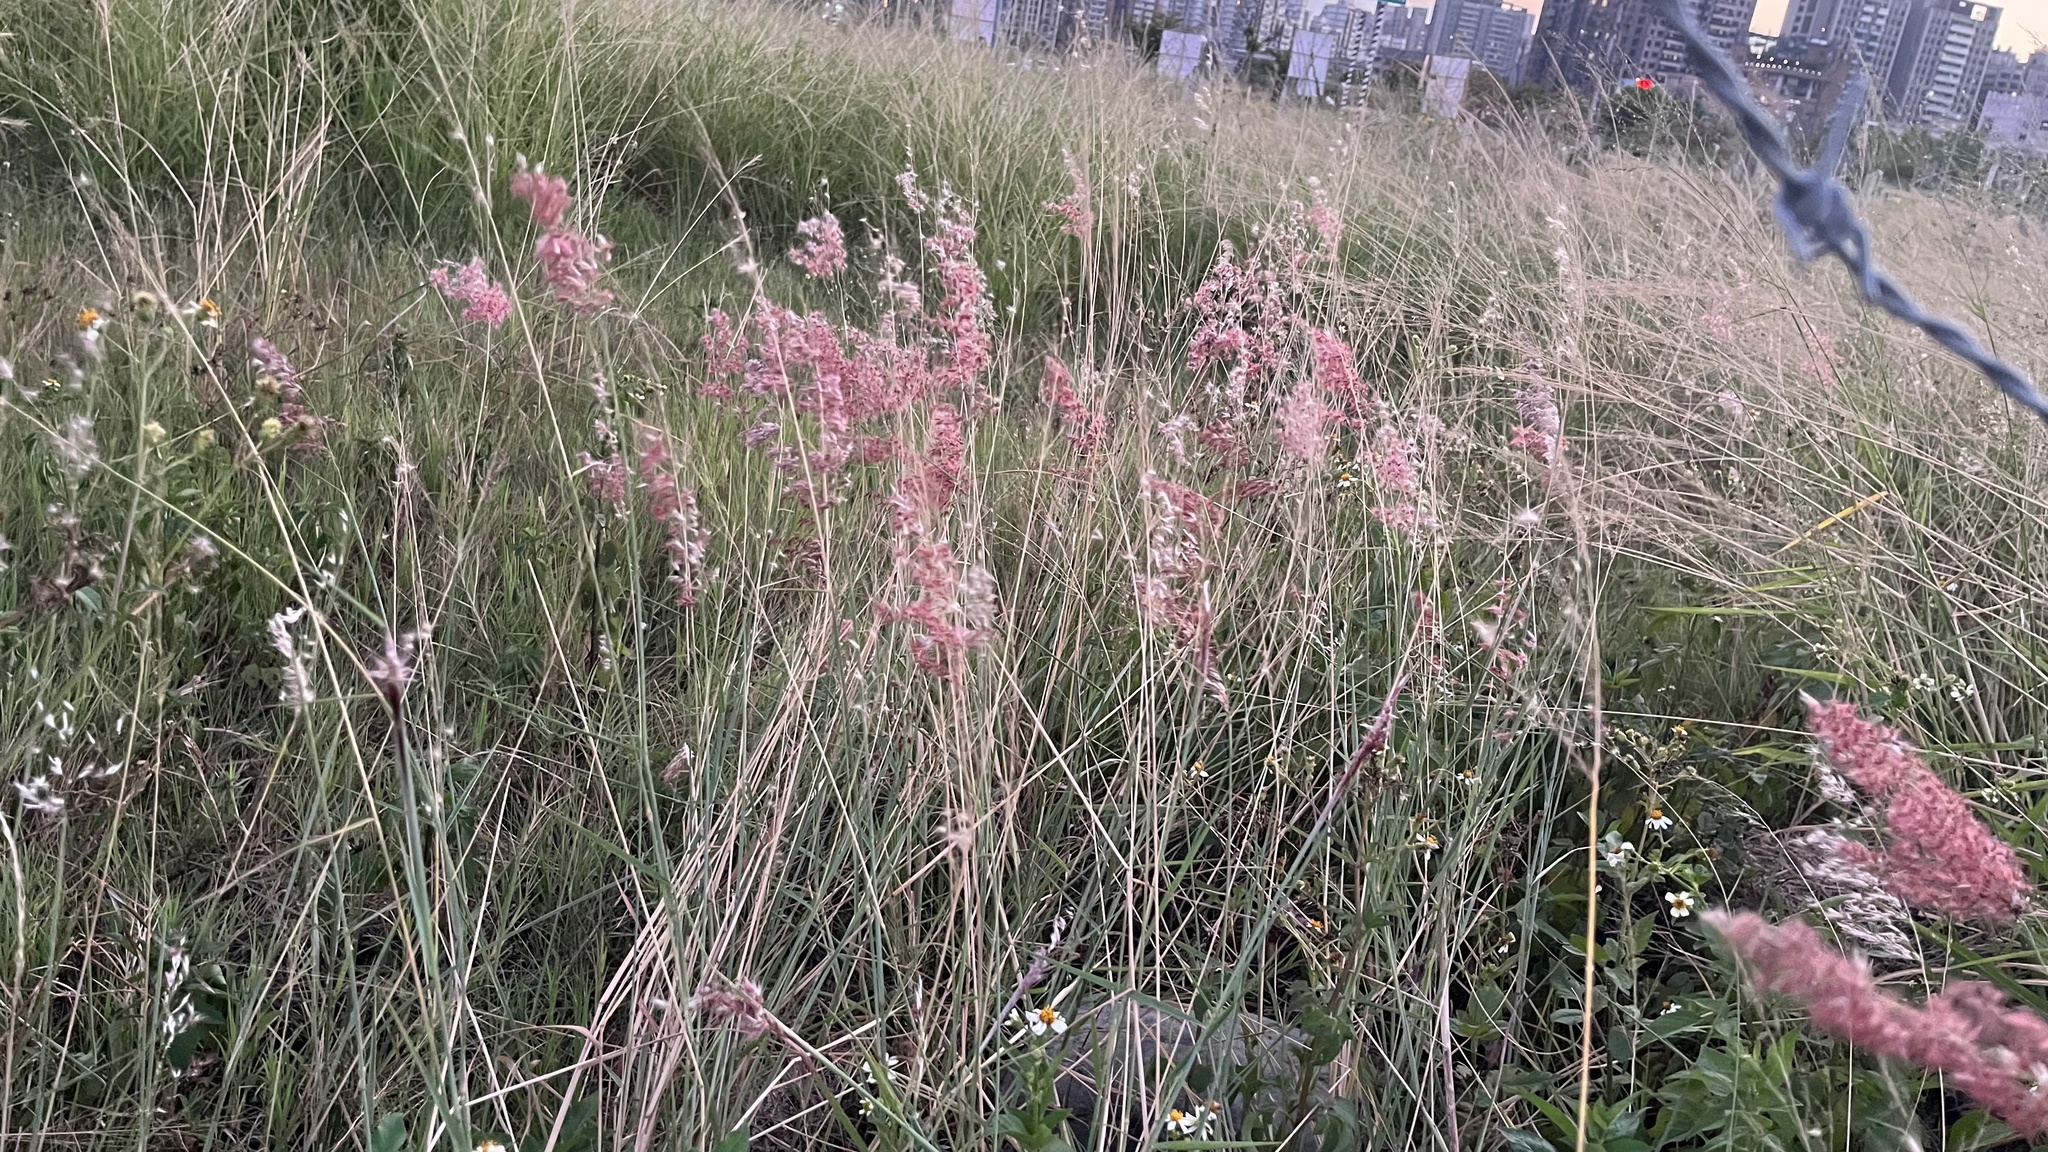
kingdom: Plantae
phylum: Tracheophyta
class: Liliopsida
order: Poales
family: Poaceae
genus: Melinis
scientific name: Melinis repens
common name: Rose natal grass
